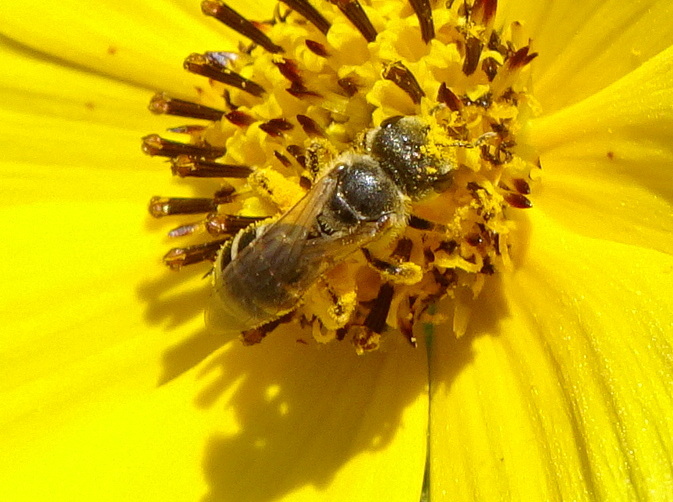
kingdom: Animalia
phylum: Arthropoda
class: Insecta
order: Hymenoptera
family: Halictidae
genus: Halictus
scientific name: Halictus ligatus
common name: Ligated furrow bee
